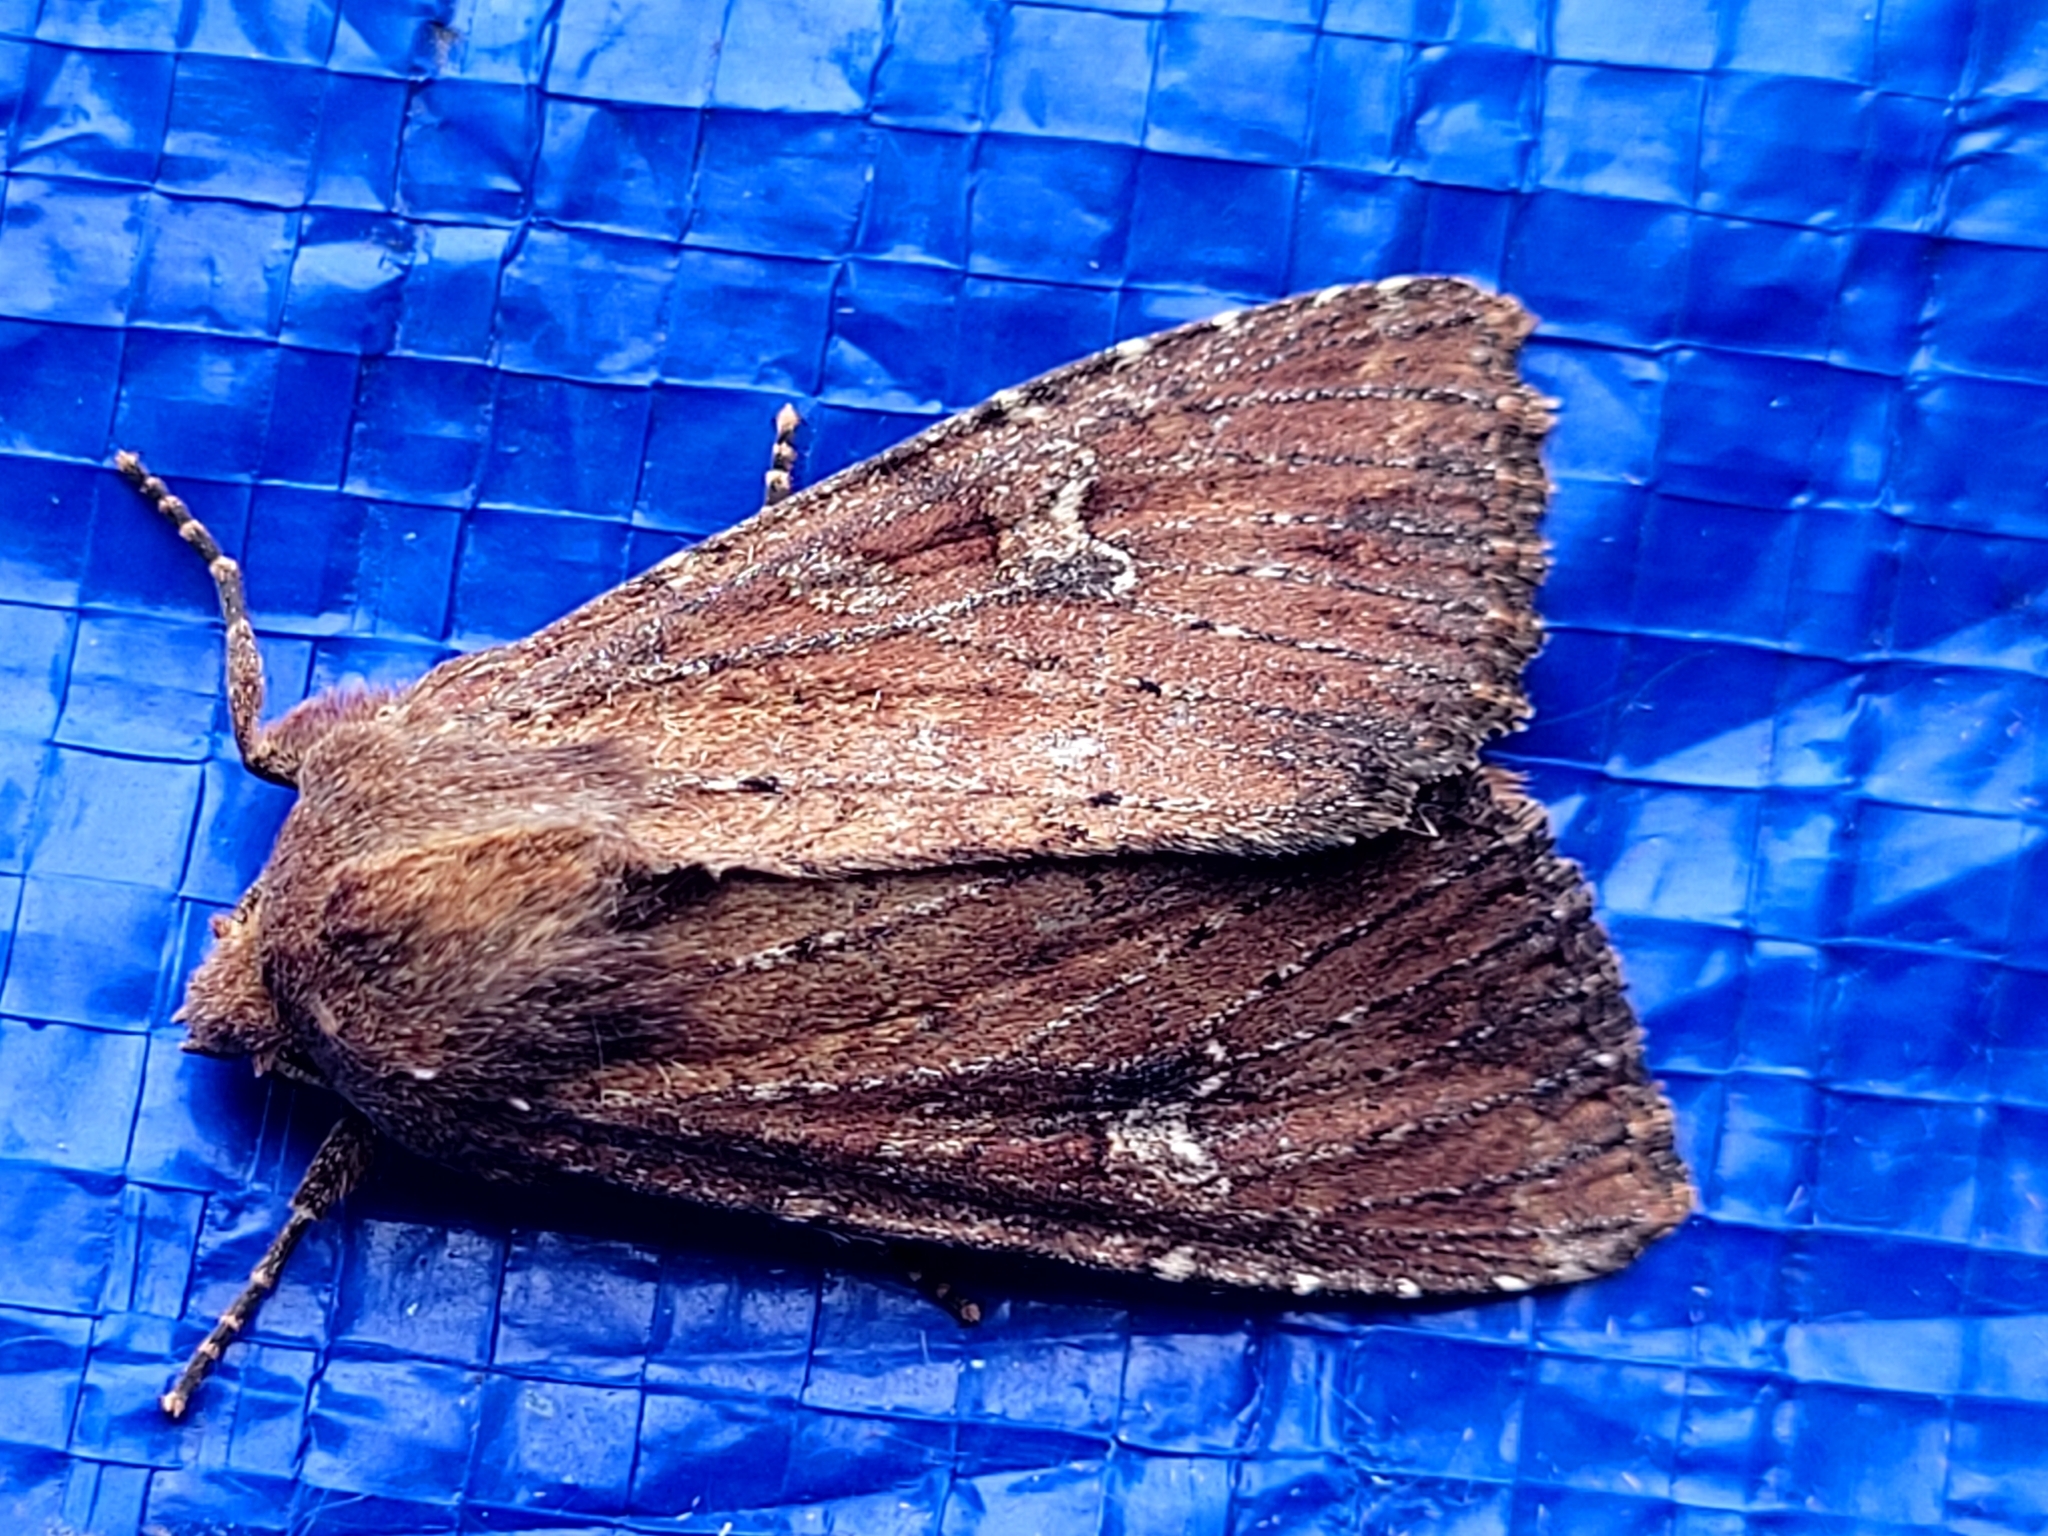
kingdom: Animalia
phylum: Arthropoda
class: Insecta
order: Lepidoptera
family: Noctuidae
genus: Apamea
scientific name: Apamea scoparia
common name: Faint-spotted quaker
